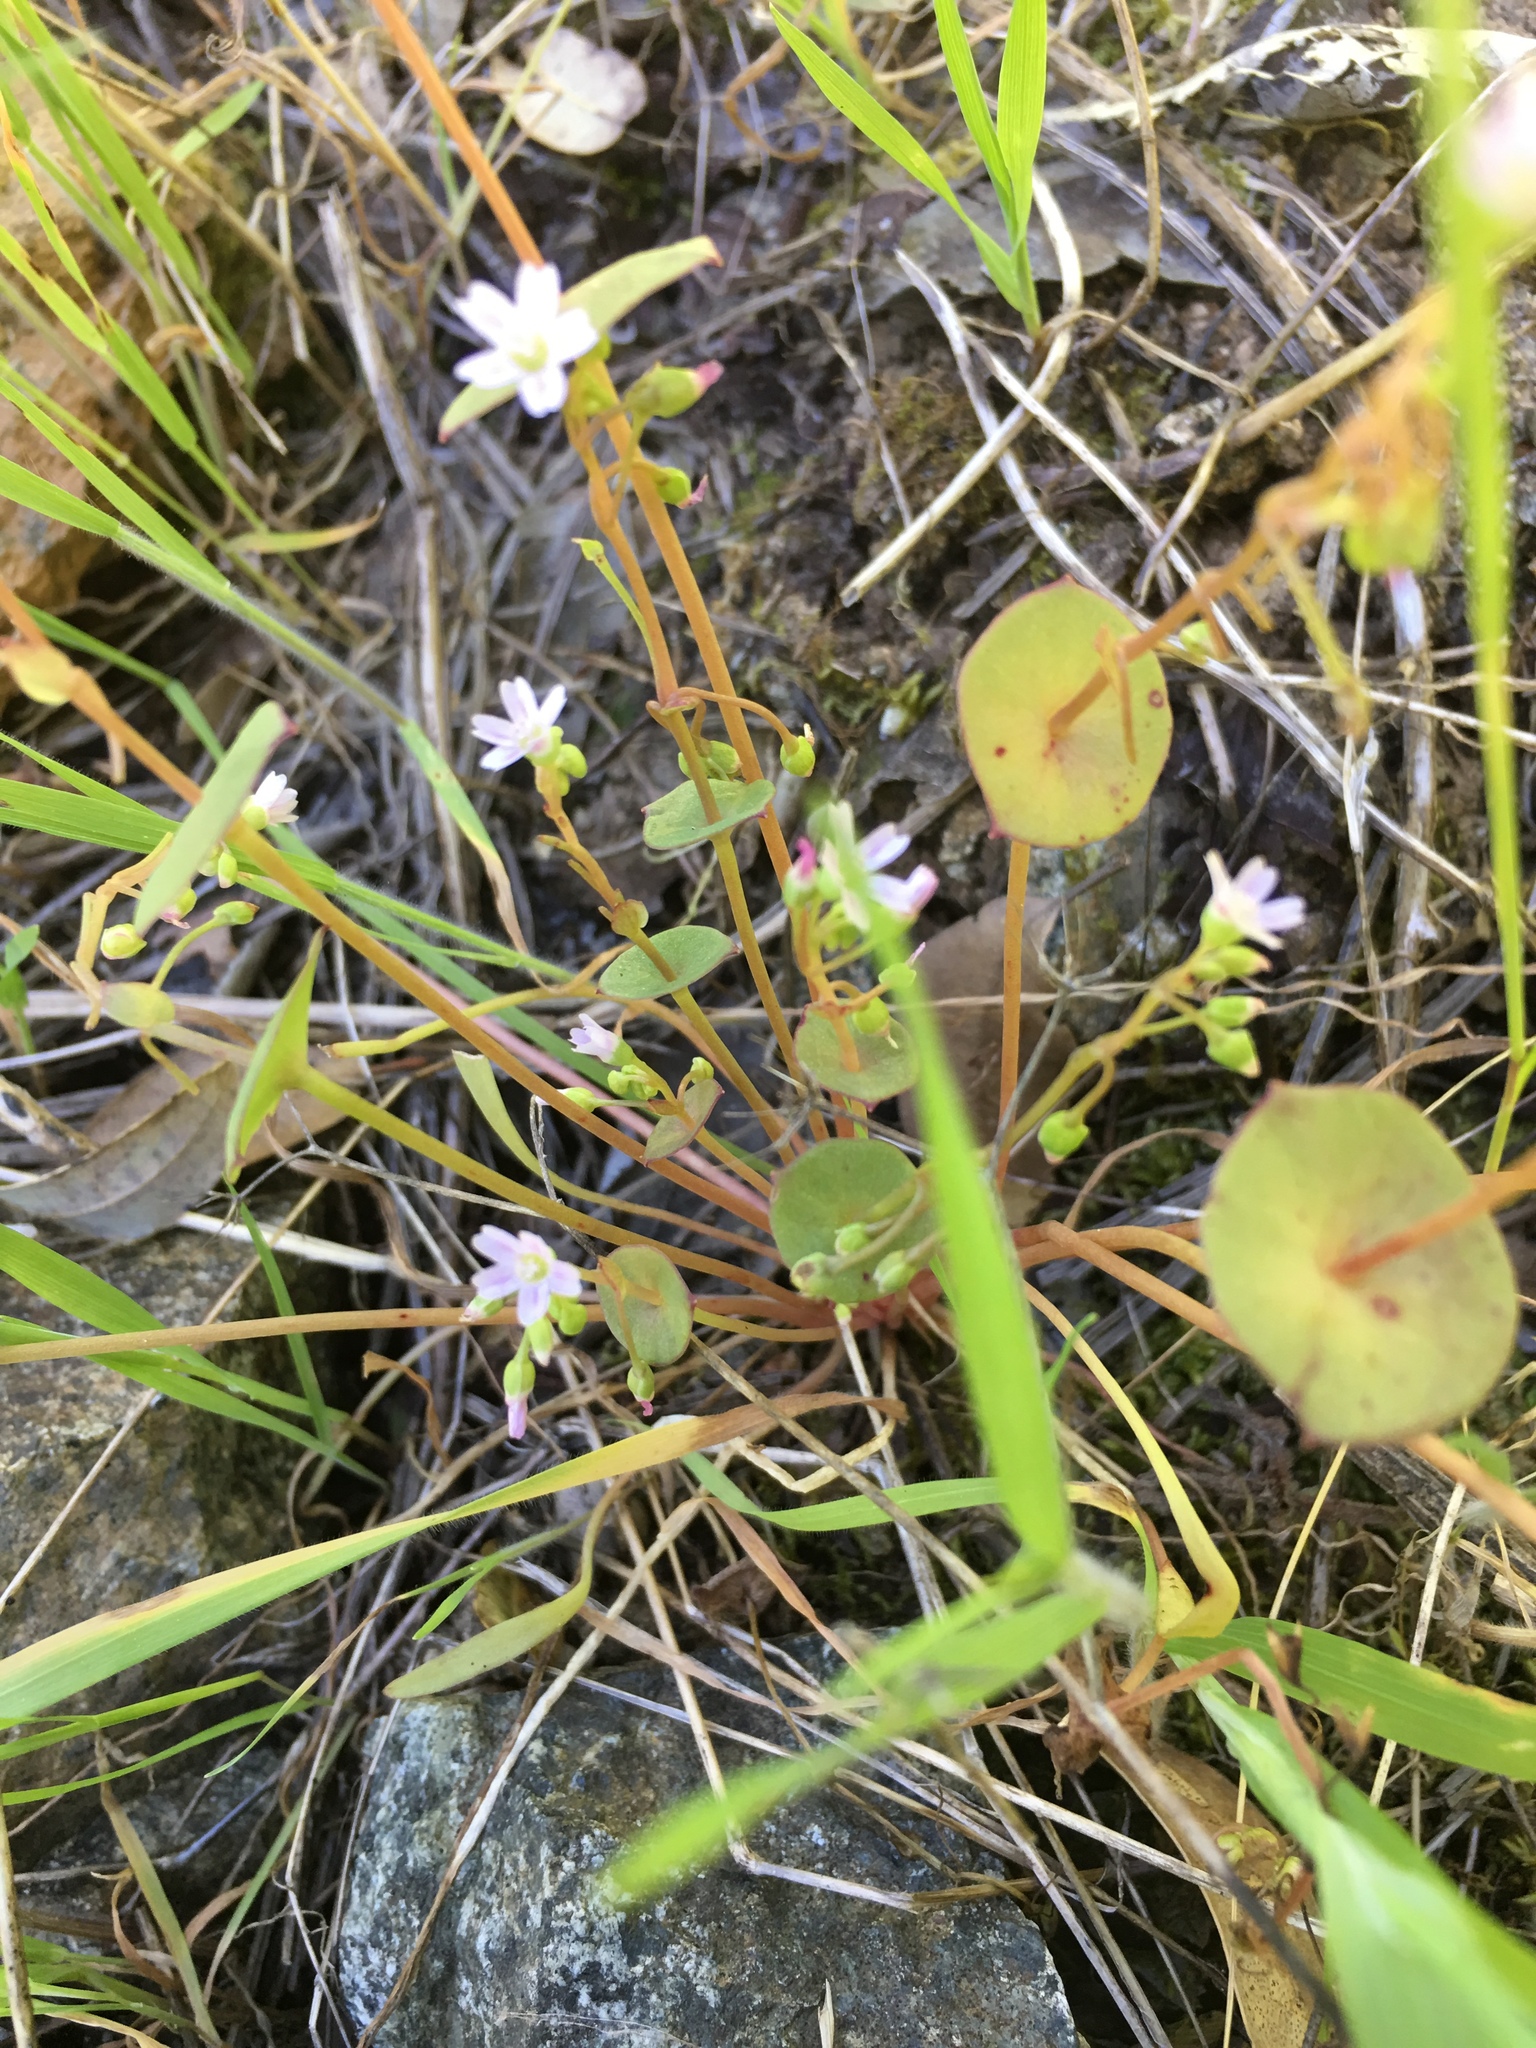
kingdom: Plantae
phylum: Tracheophyta
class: Magnoliopsida
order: Caryophyllales
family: Montiaceae
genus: Claytonia
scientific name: Claytonia parviflora
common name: Indian-lettuce
